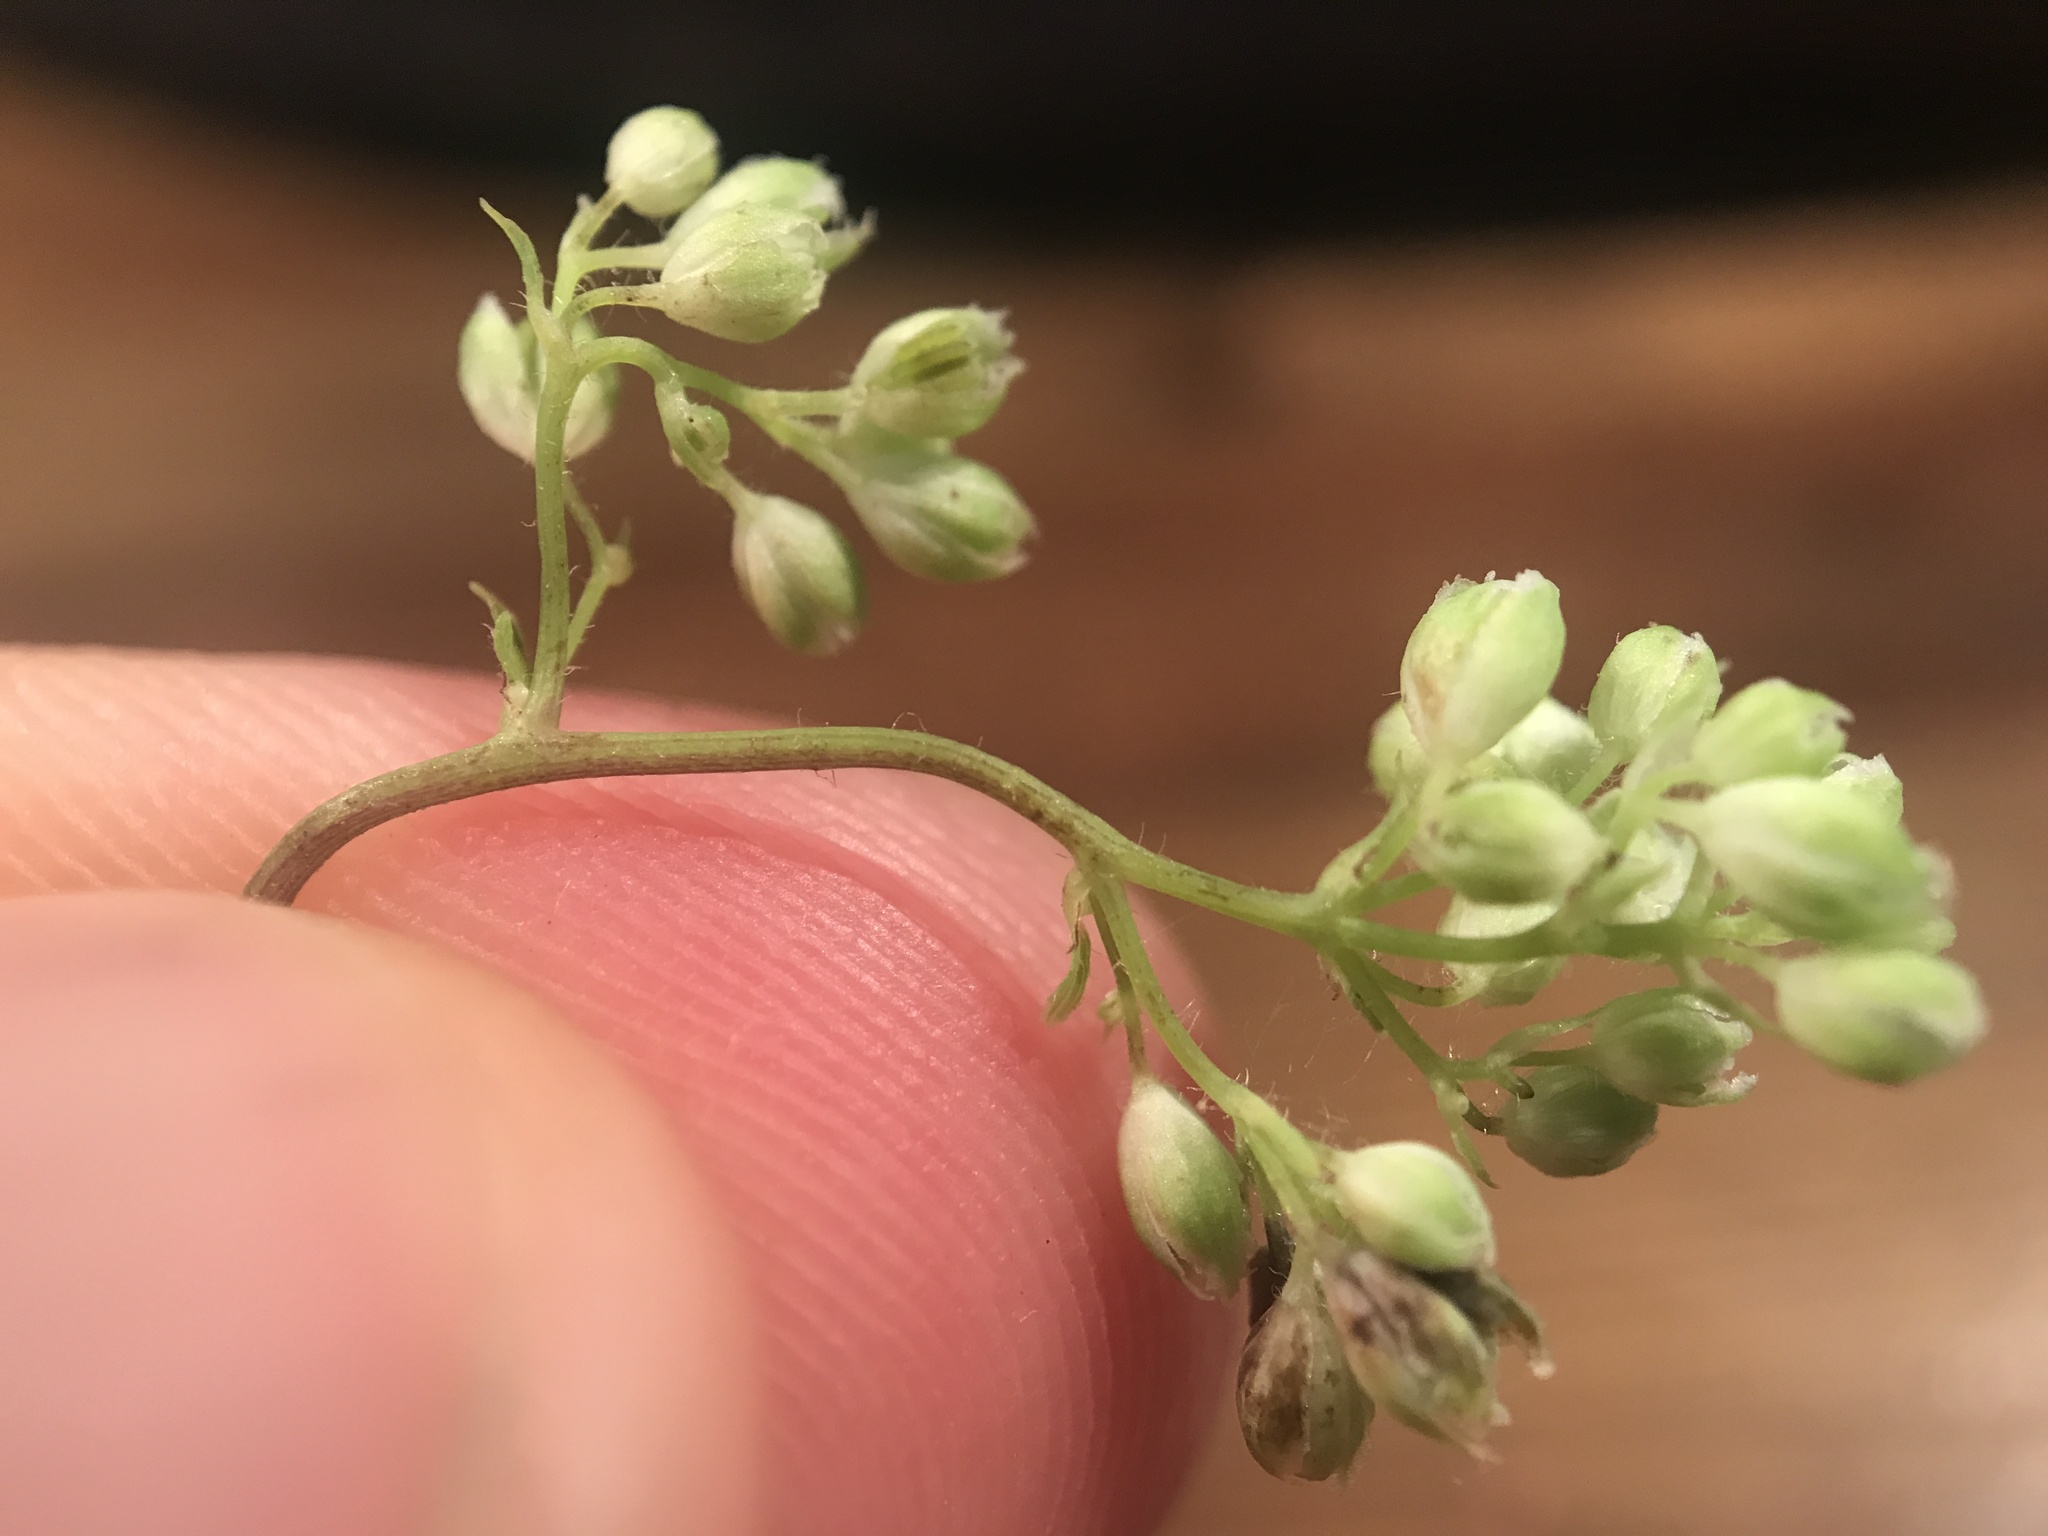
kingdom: Plantae
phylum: Tracheophyta
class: Magnoliopsida
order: Ranunculales
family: Ranunculaceae
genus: Thalictrum
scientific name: Thalictrum revolutum
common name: Waxy meadow-rue
